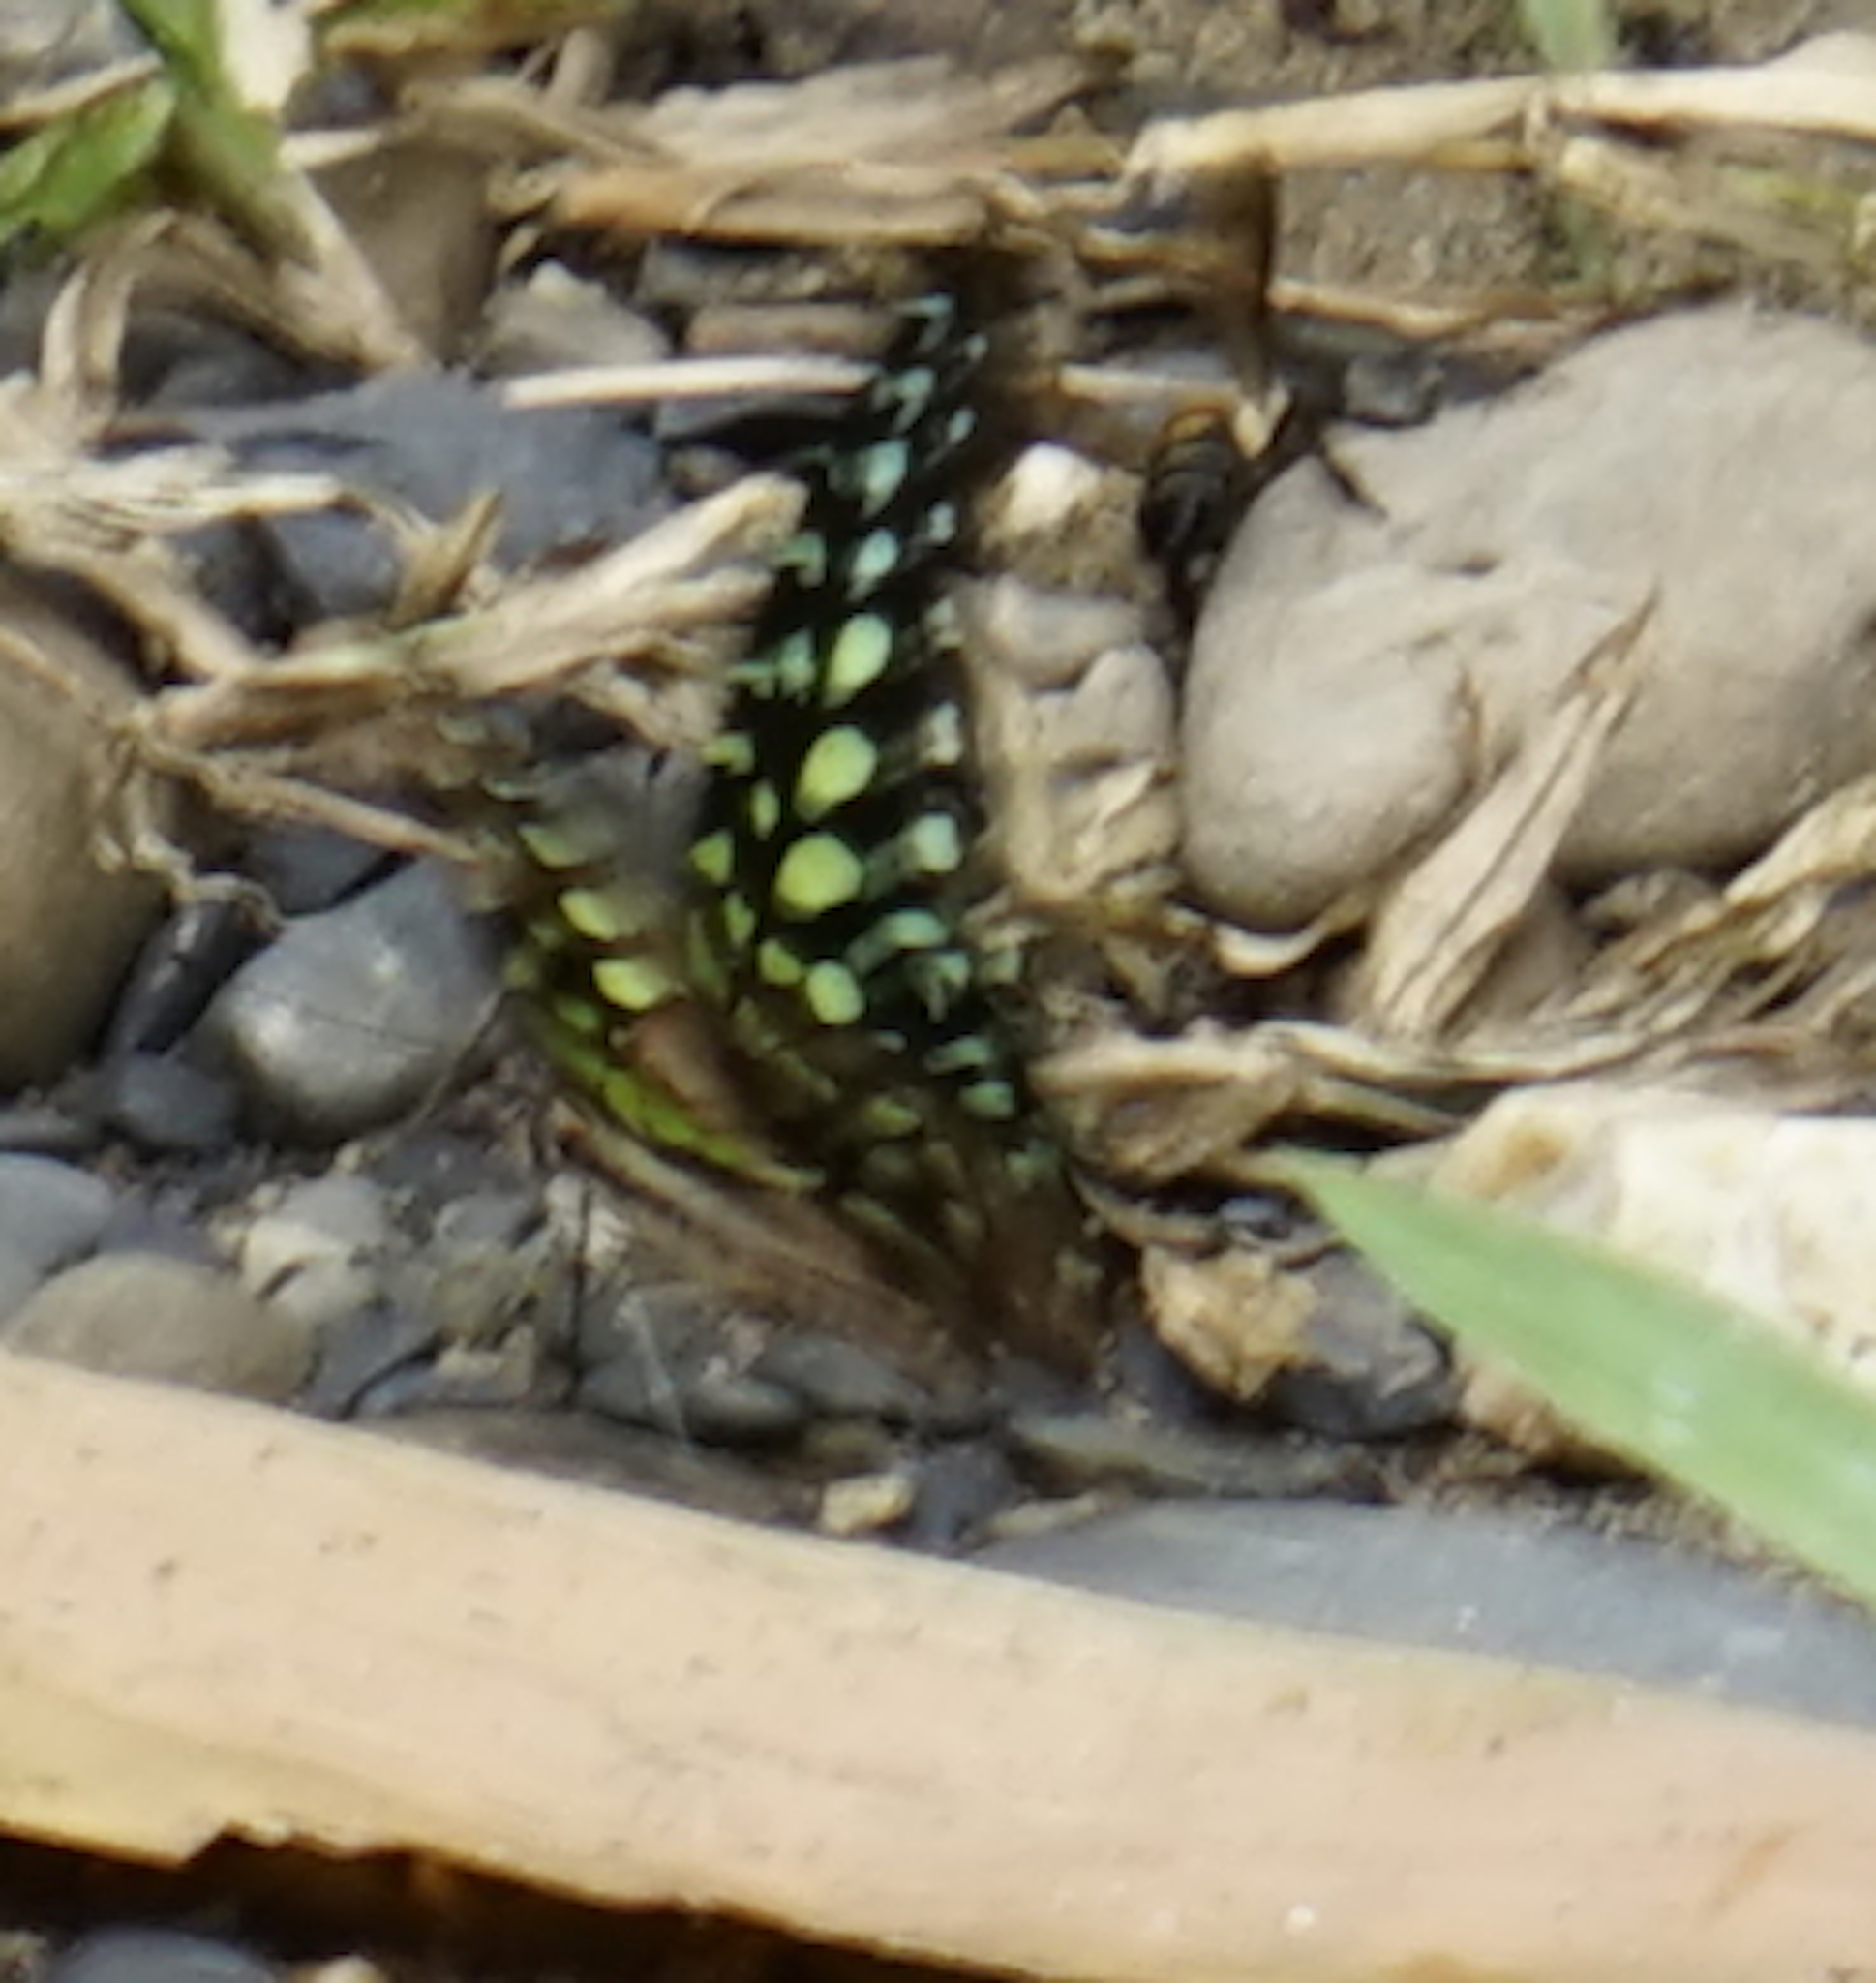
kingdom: Animalia
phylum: Arthropoda
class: Insecta
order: Lepidoptera
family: Papilionidae
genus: Graphium
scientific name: Graphium agamemnon
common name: Tailed jay
